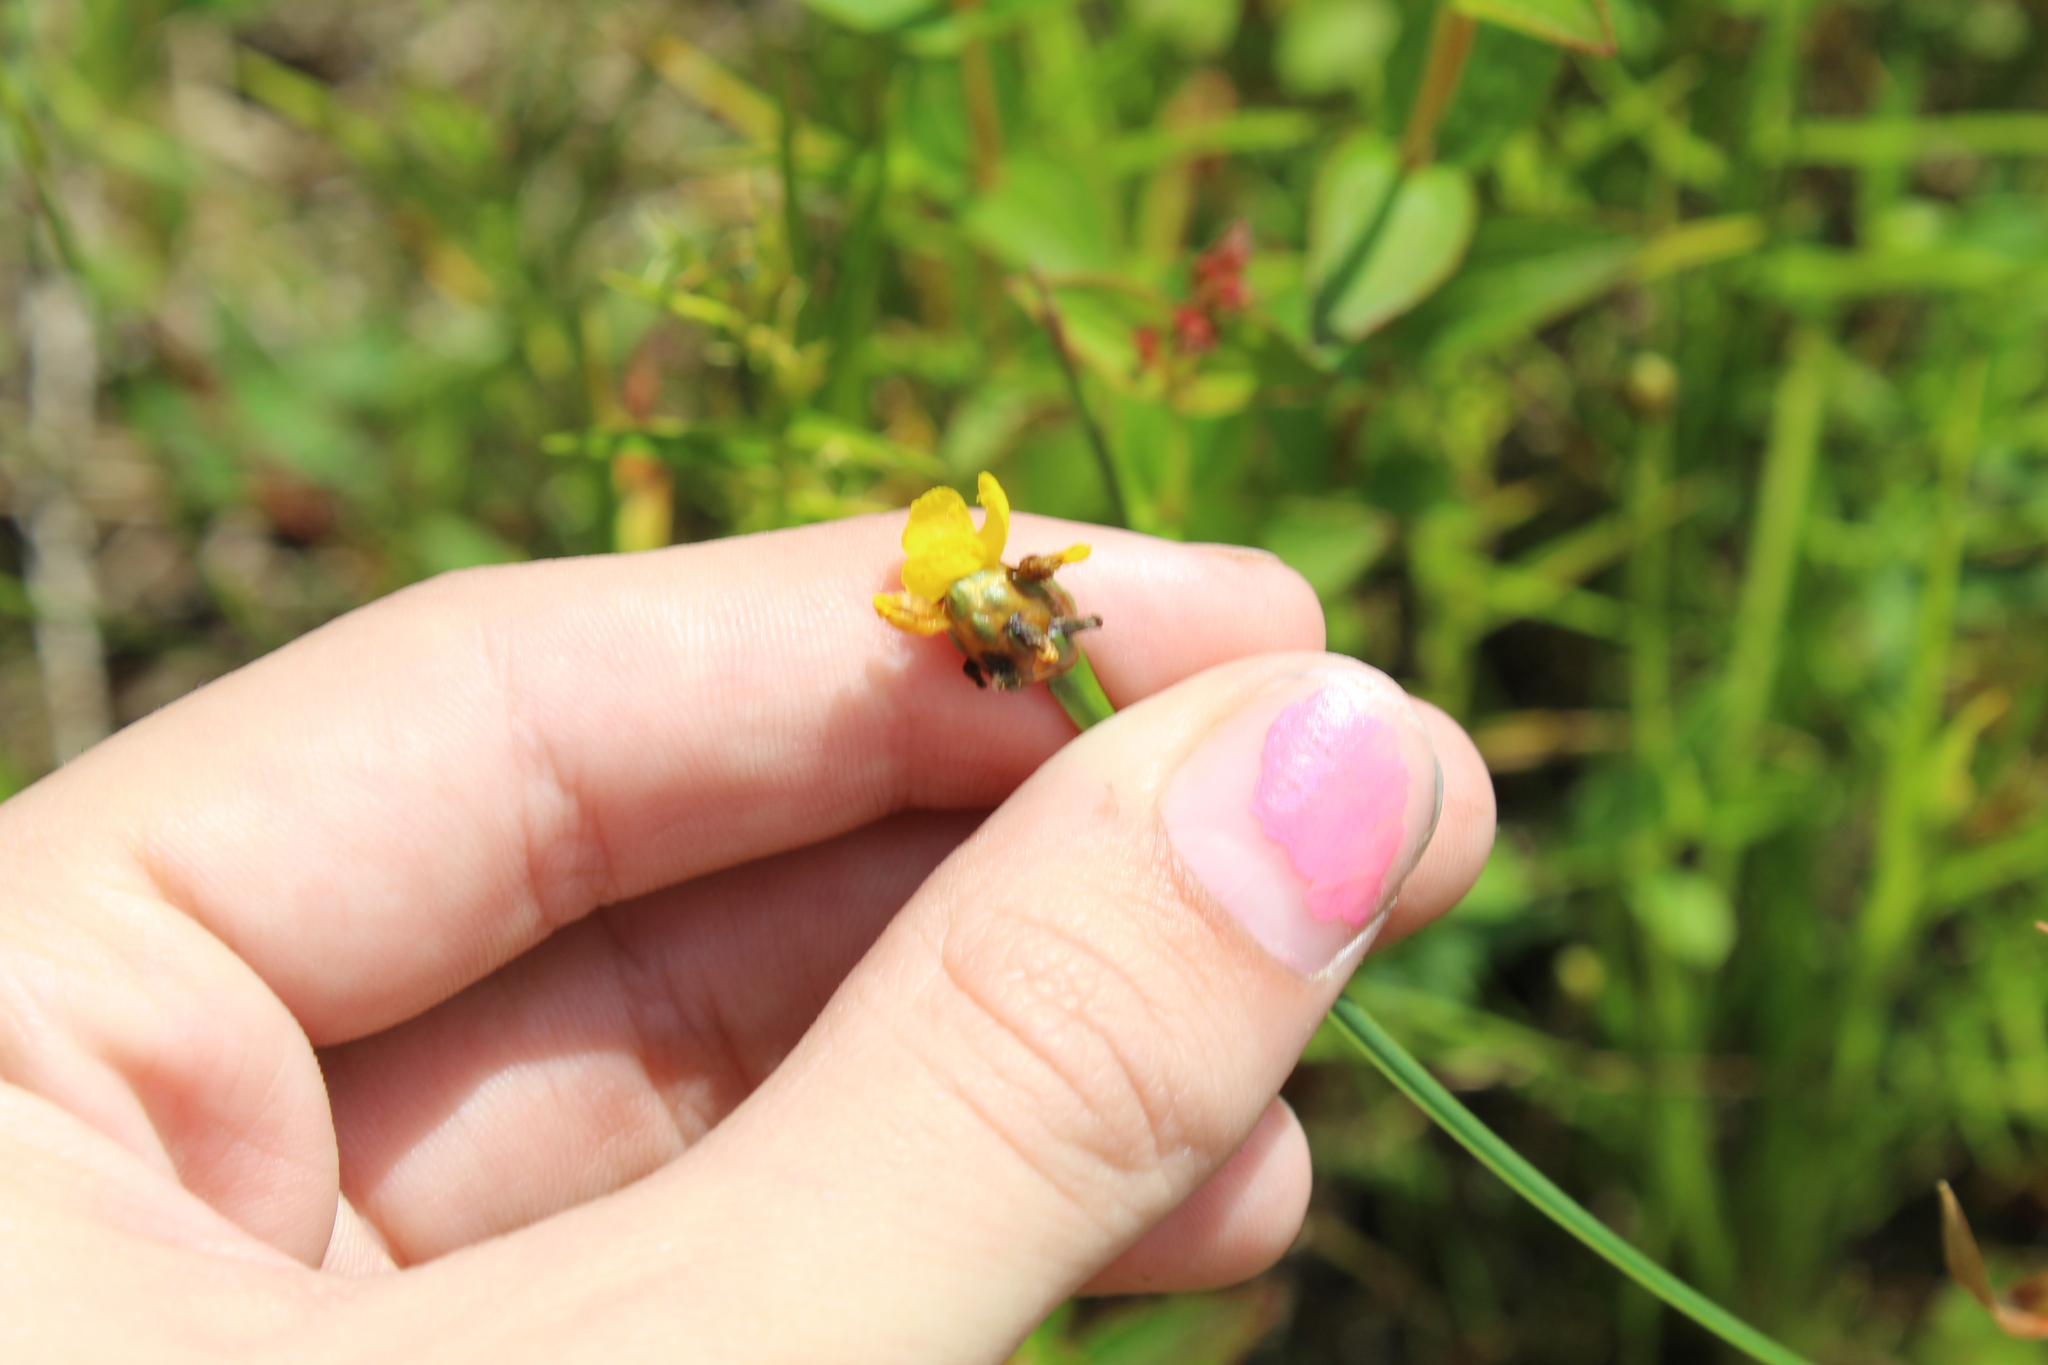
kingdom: Plantae
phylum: Tracheophyta
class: Liliopsida
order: Poales
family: Xyridaceae
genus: Xyris
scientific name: Xyris difformis
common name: Bog yellow-eyed-grass
